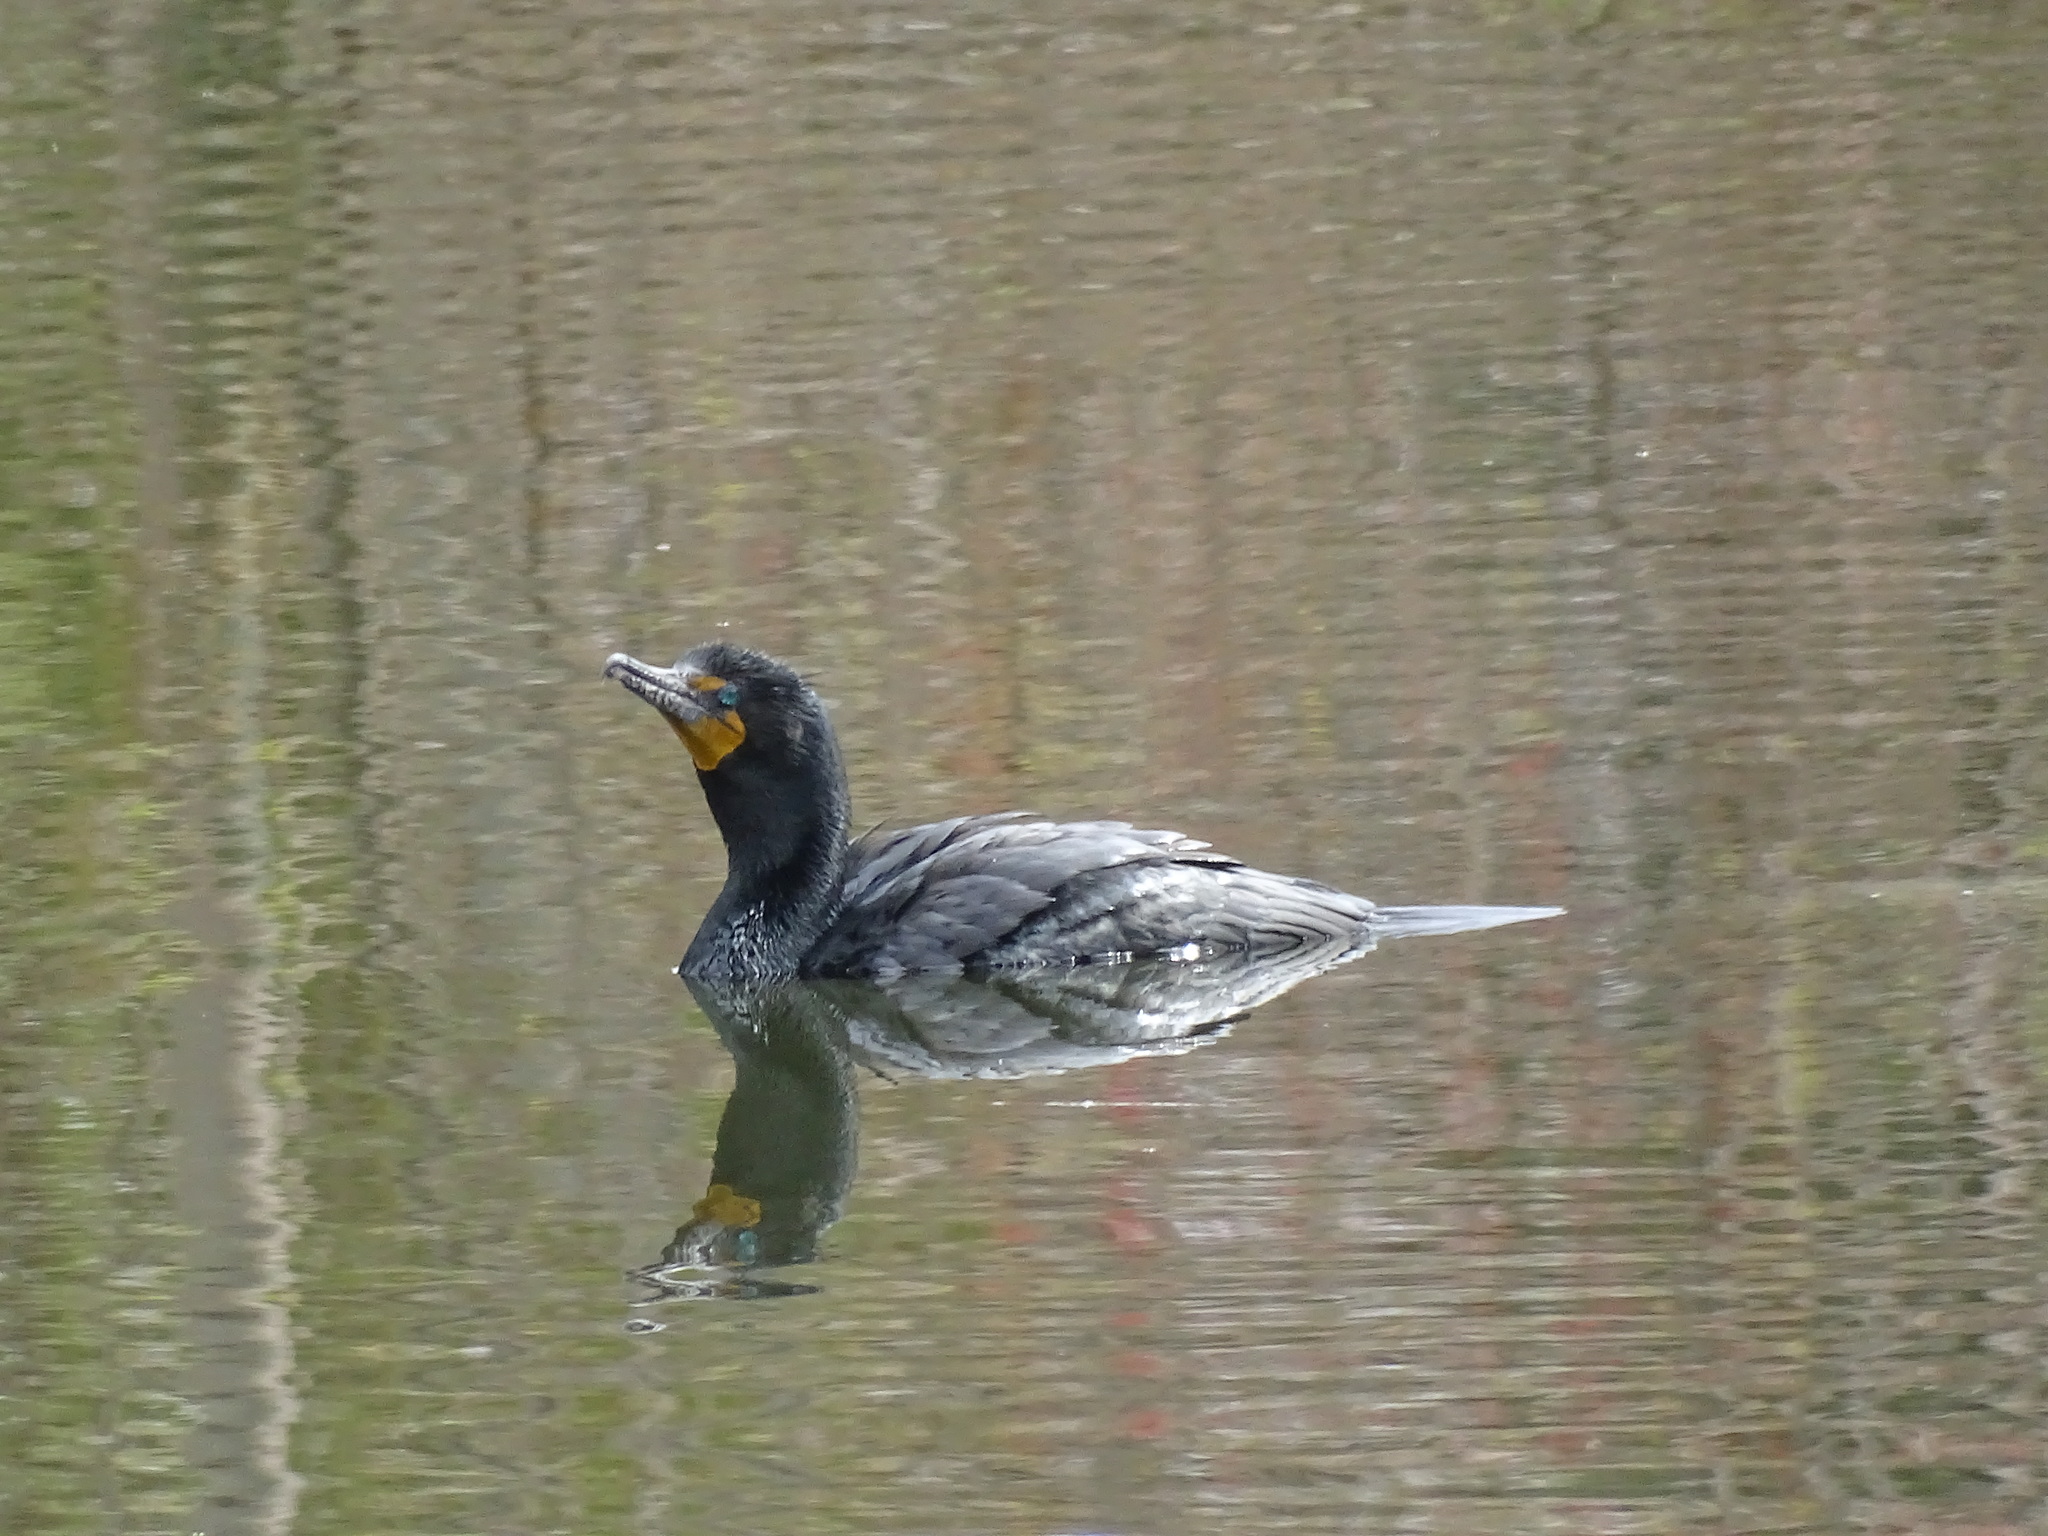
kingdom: Animalia
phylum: Chordata
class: Aves
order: Suliformes
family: Phalacrocoracidae
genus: Phalacrocorax
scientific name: Phalacrocorax auritus
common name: Double-crested cormorant
